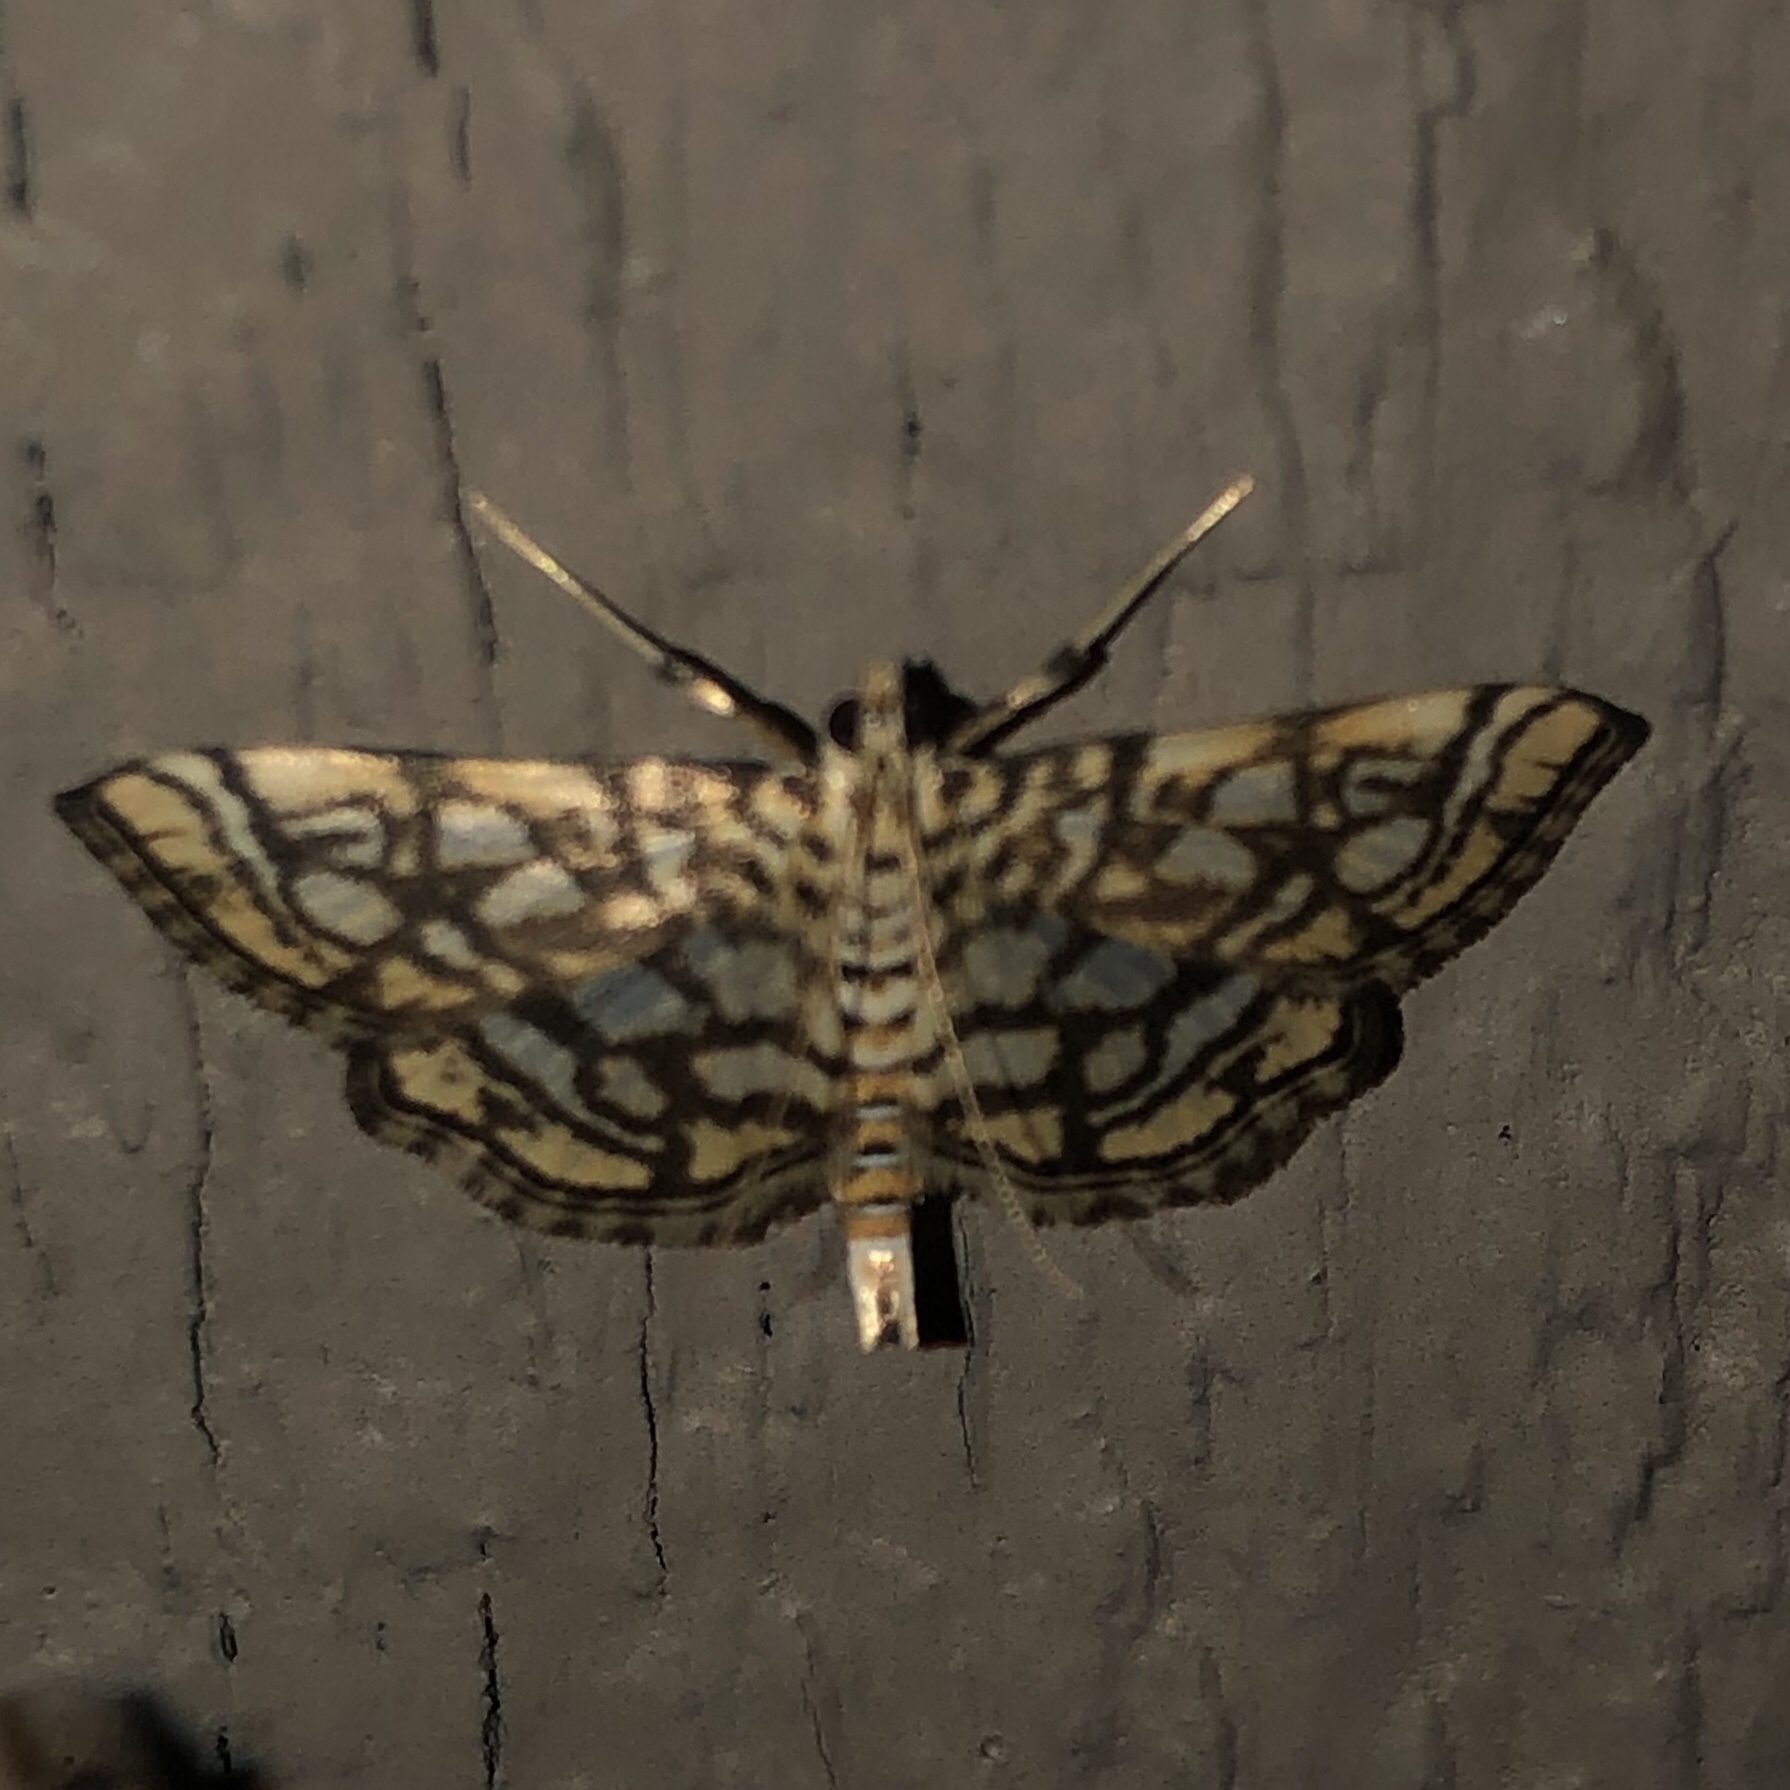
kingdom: Animalia
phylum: Arthropoda
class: Insecta
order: Lepidoptera
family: Crambidae
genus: Lygropia
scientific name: Lygropia rivulalis
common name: Bog lygropia moth
